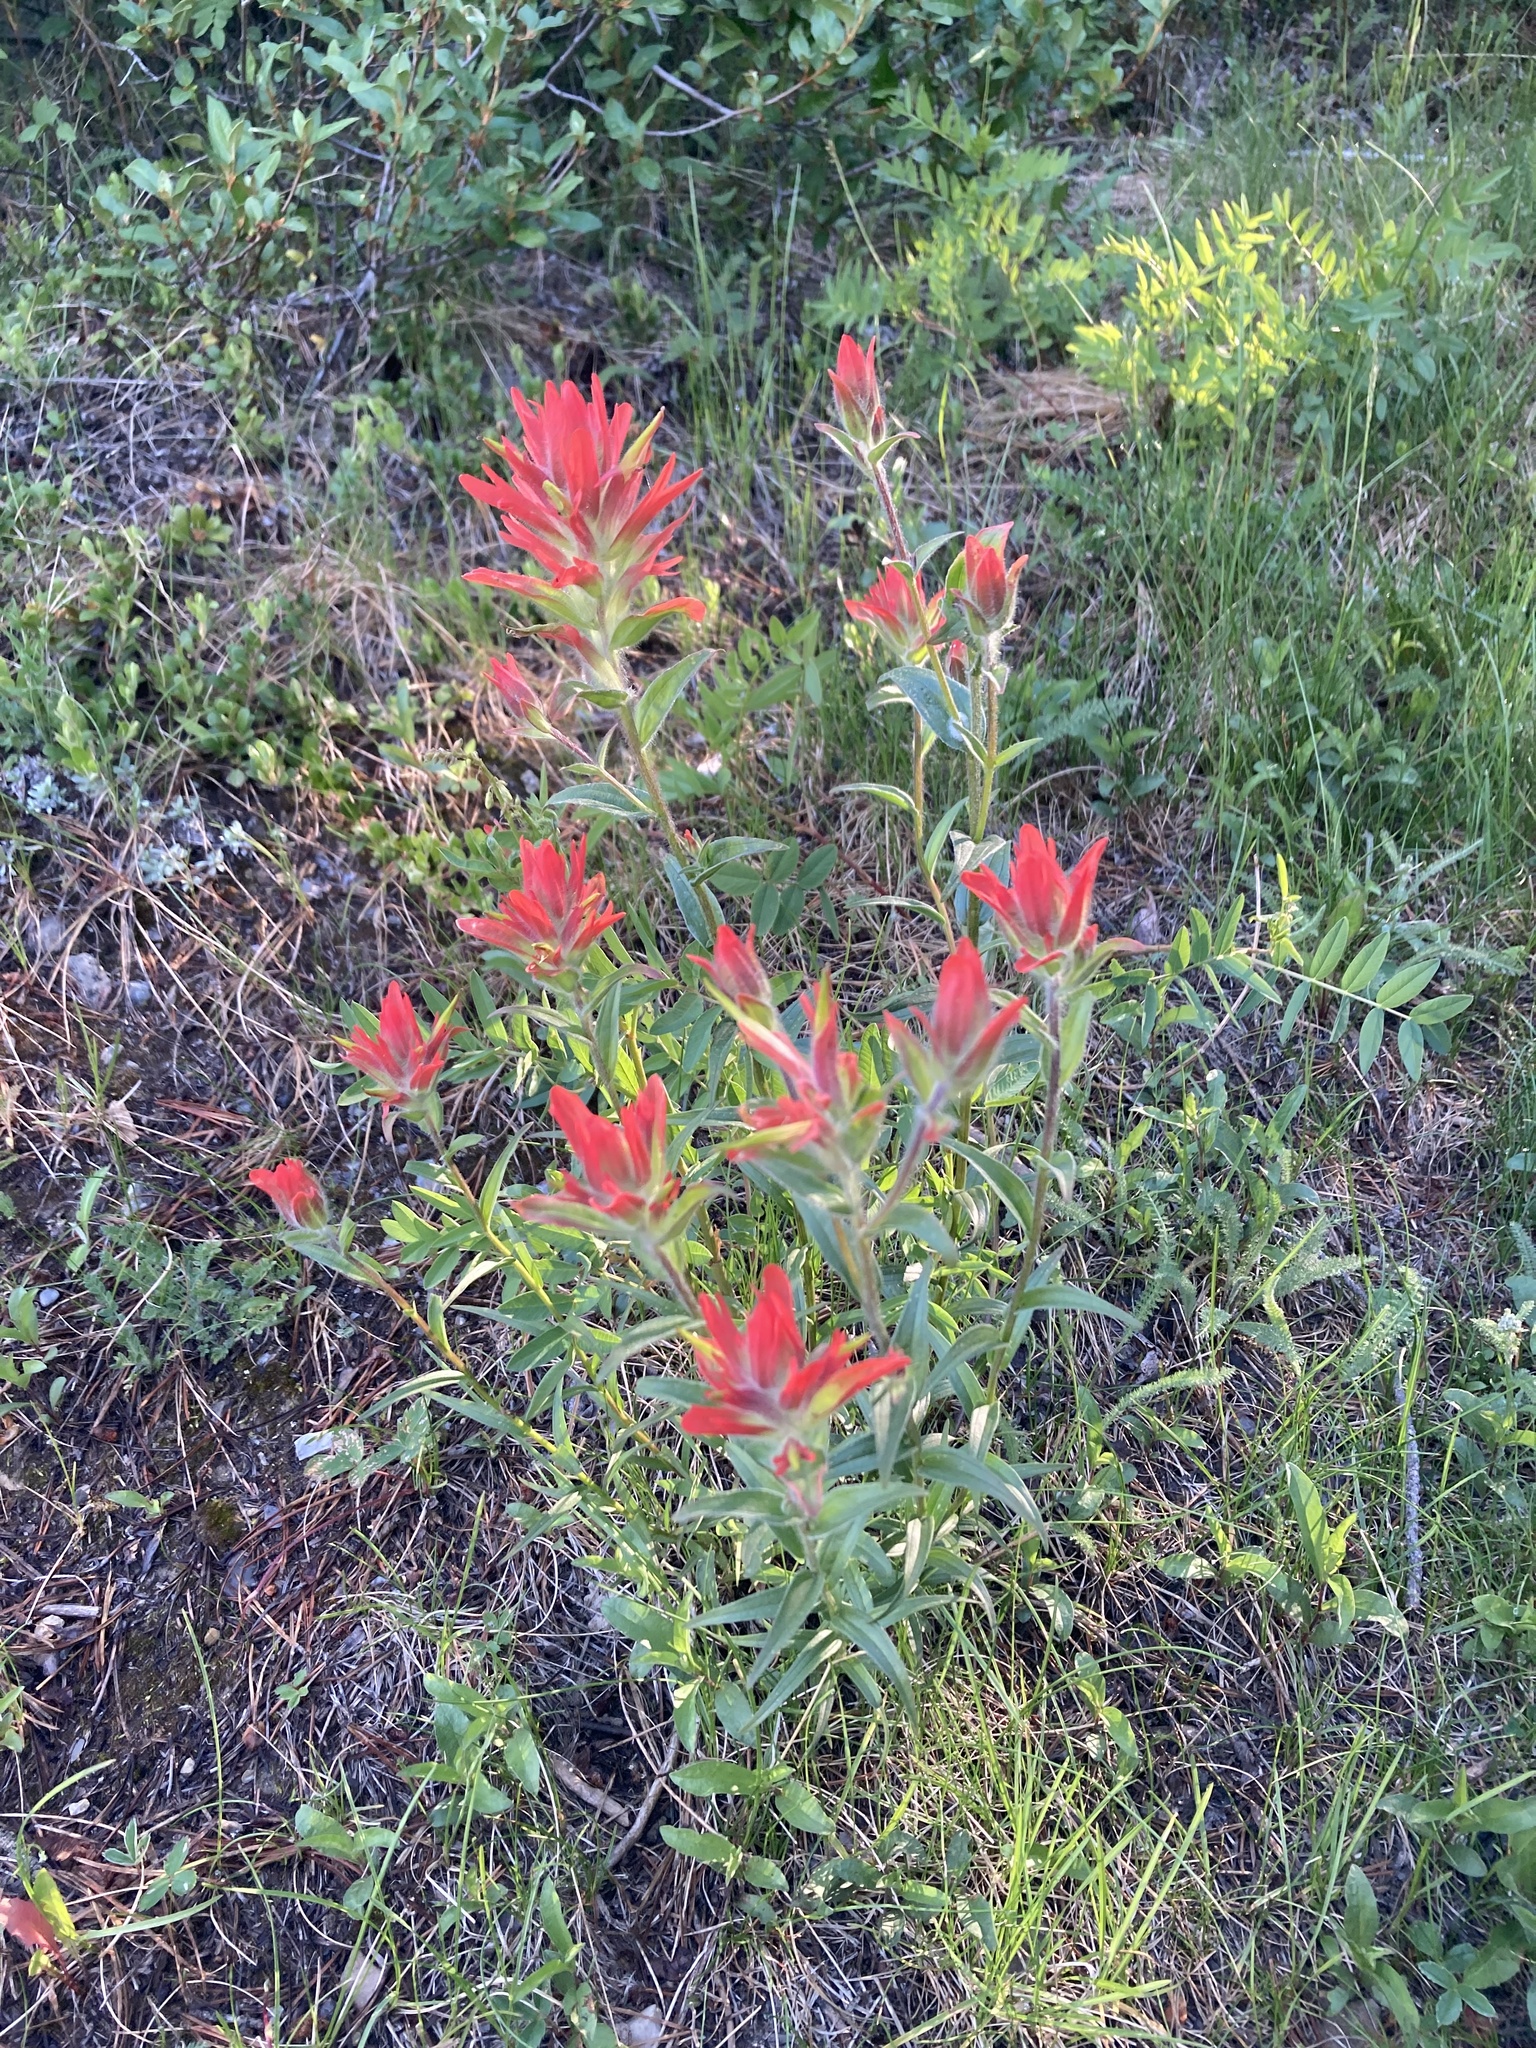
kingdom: Plantae
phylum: Tracheophyta
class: Magnoliopsida
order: Lamiales
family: Orobanchaceae
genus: Castilleja
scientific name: Castilleja miniata
